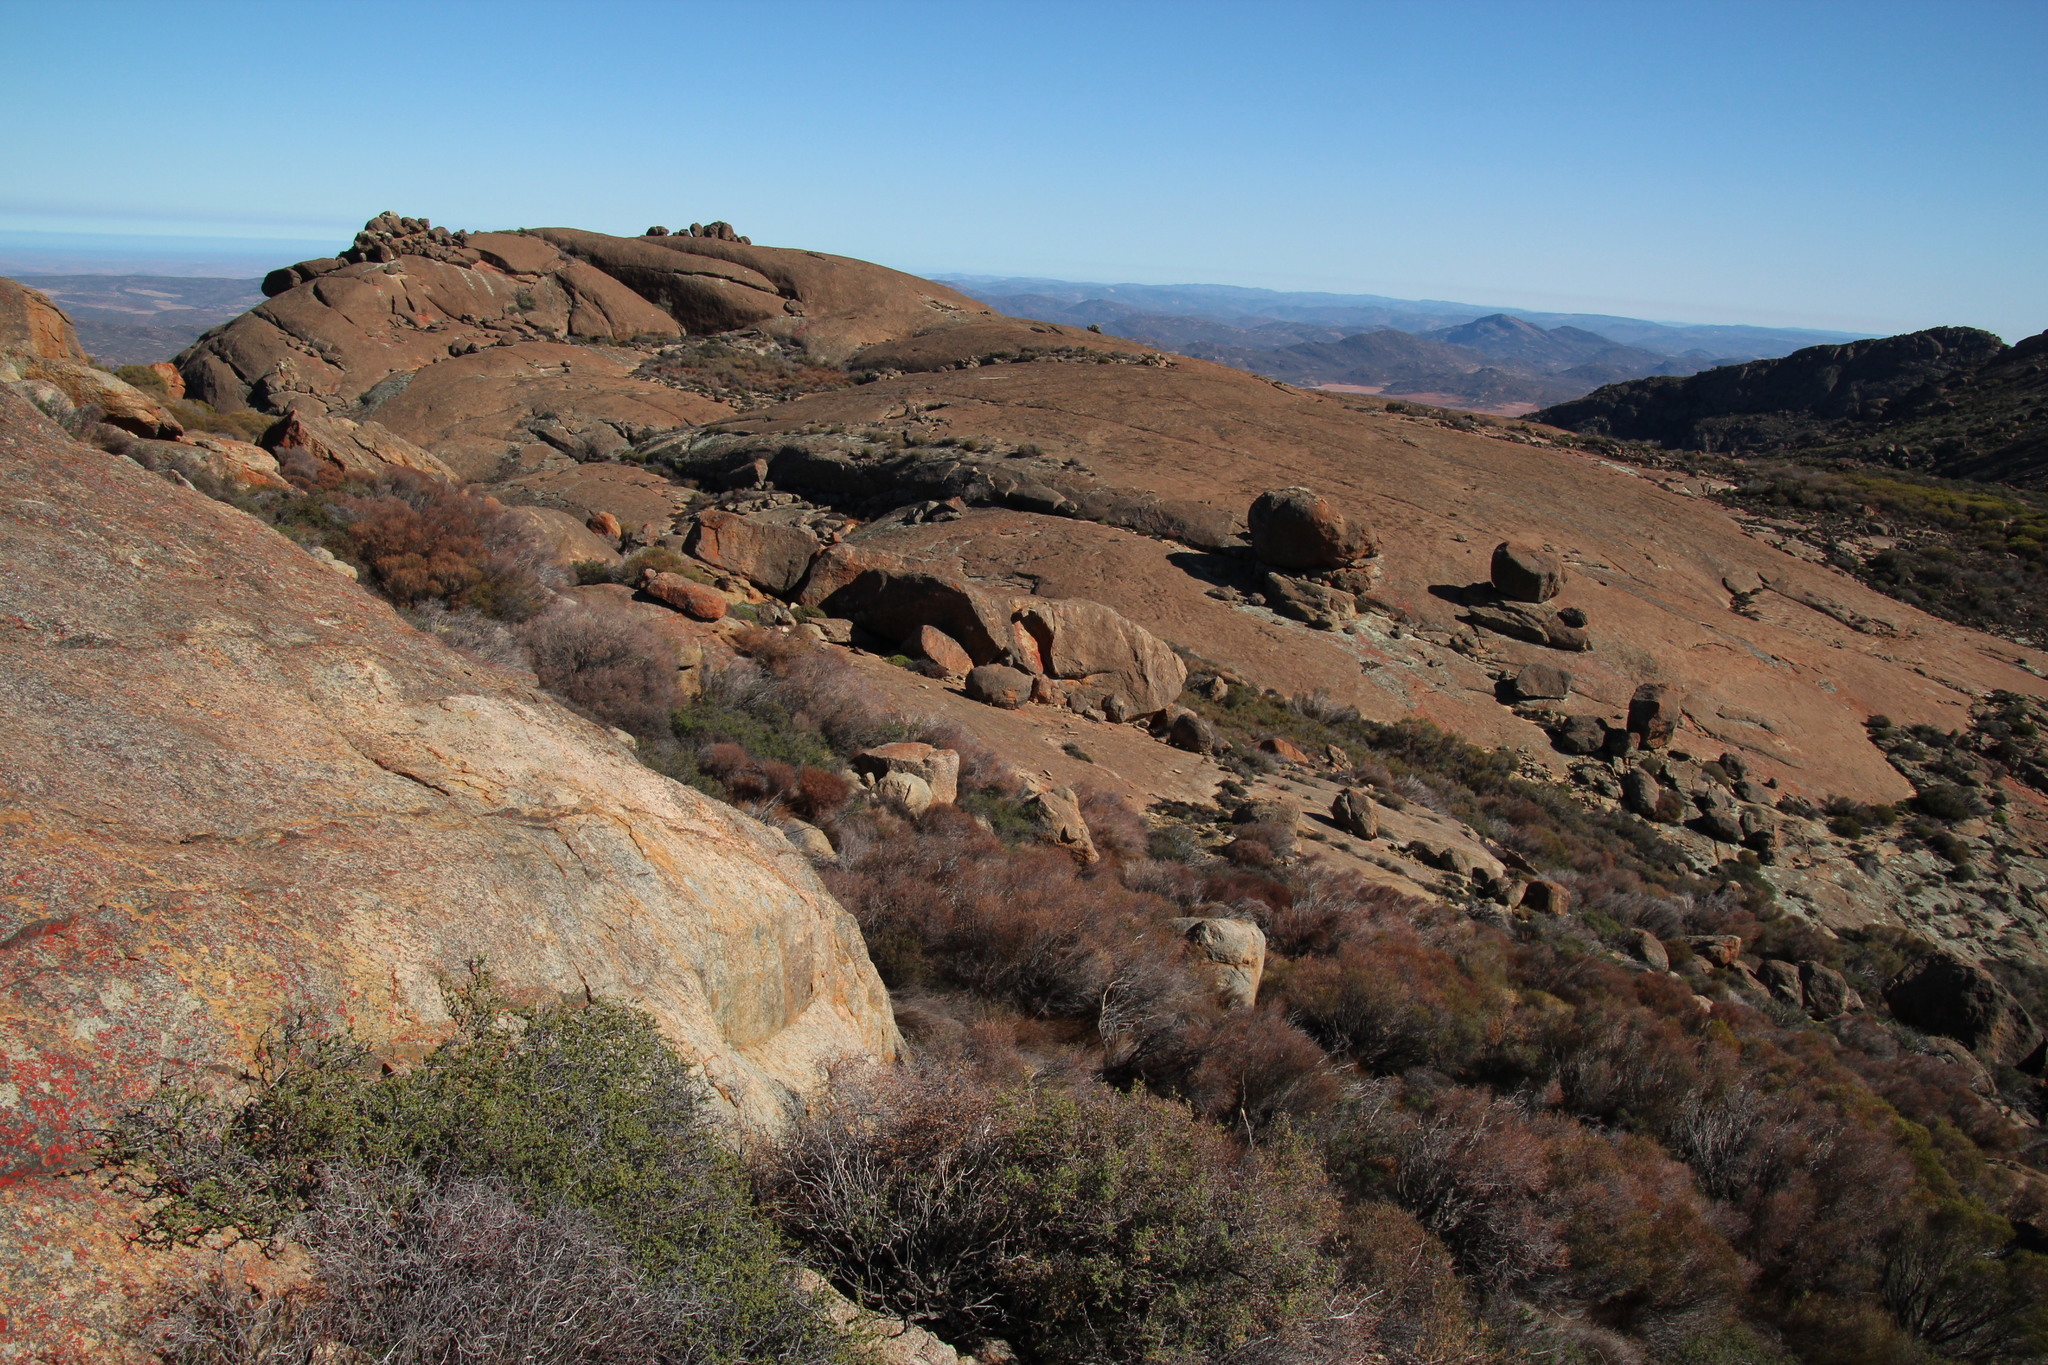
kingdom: Plantae
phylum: Tracheophyta
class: Magnoliopsida
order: Rosales
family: Rosaceae
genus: Cliffortia
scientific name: Cliffortia ruscifolia
